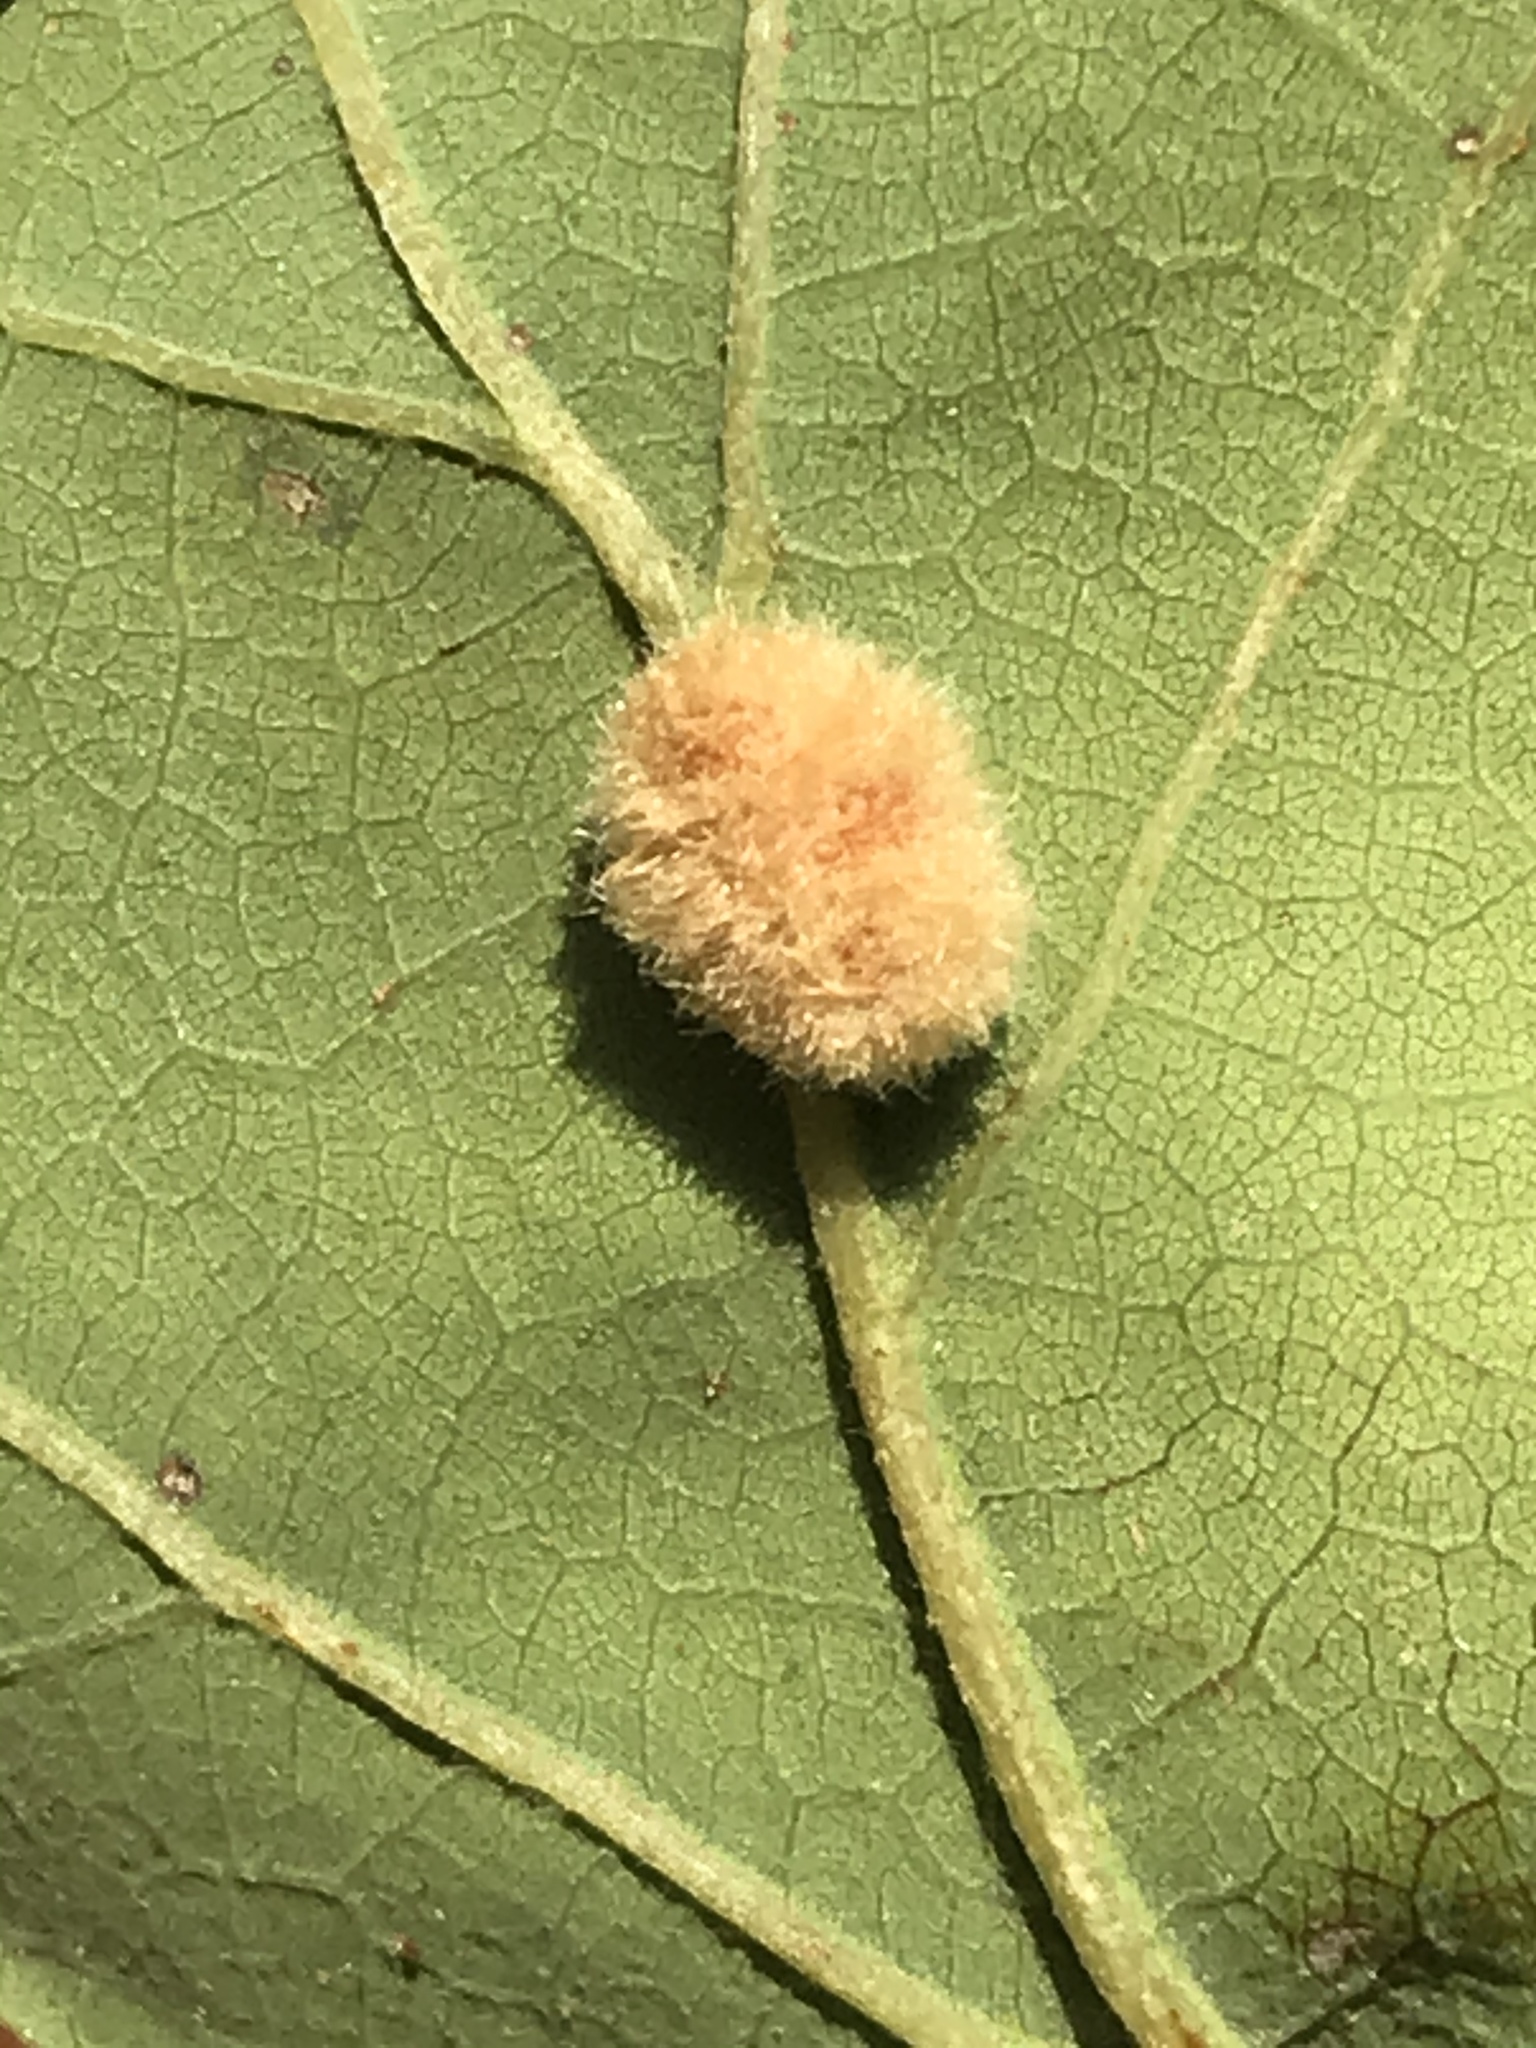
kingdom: Animalia
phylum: Arthropoda
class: Insecta
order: Hymenoptera
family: Cynipidae
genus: Andricus
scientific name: Andricus Druon pattoni
